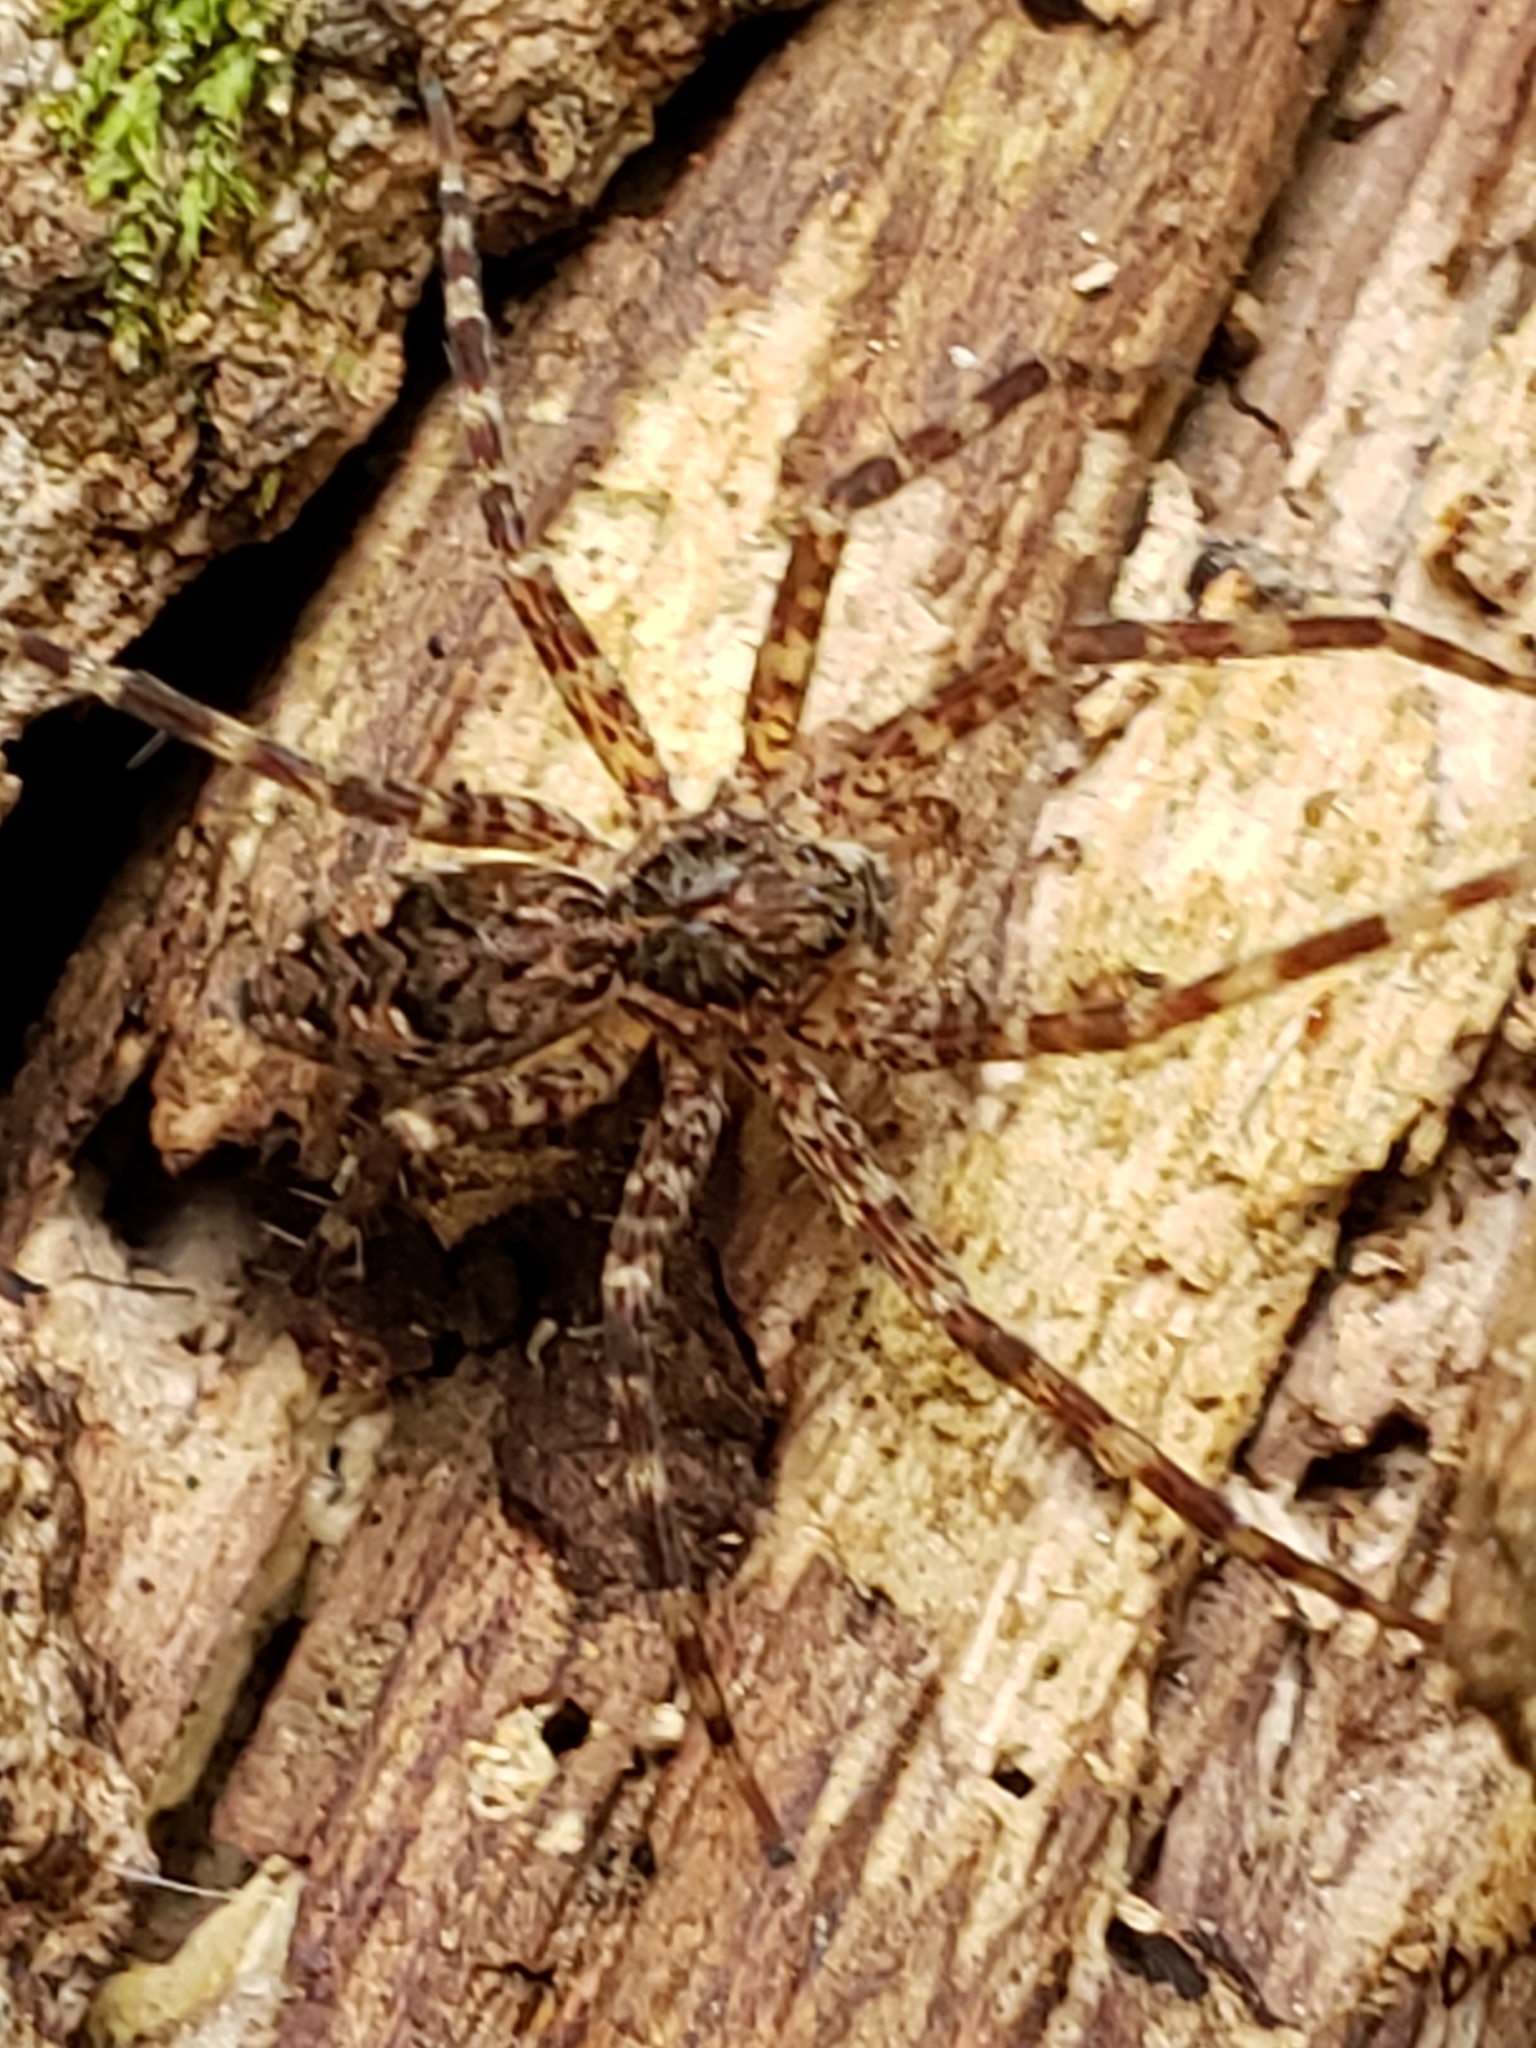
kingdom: Animalia
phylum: Arthropoda
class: Arachnida
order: Araneae
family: Pisauridae
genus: Dolomedes
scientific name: Dolomedes tenebrosus
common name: Dark fishing spider
